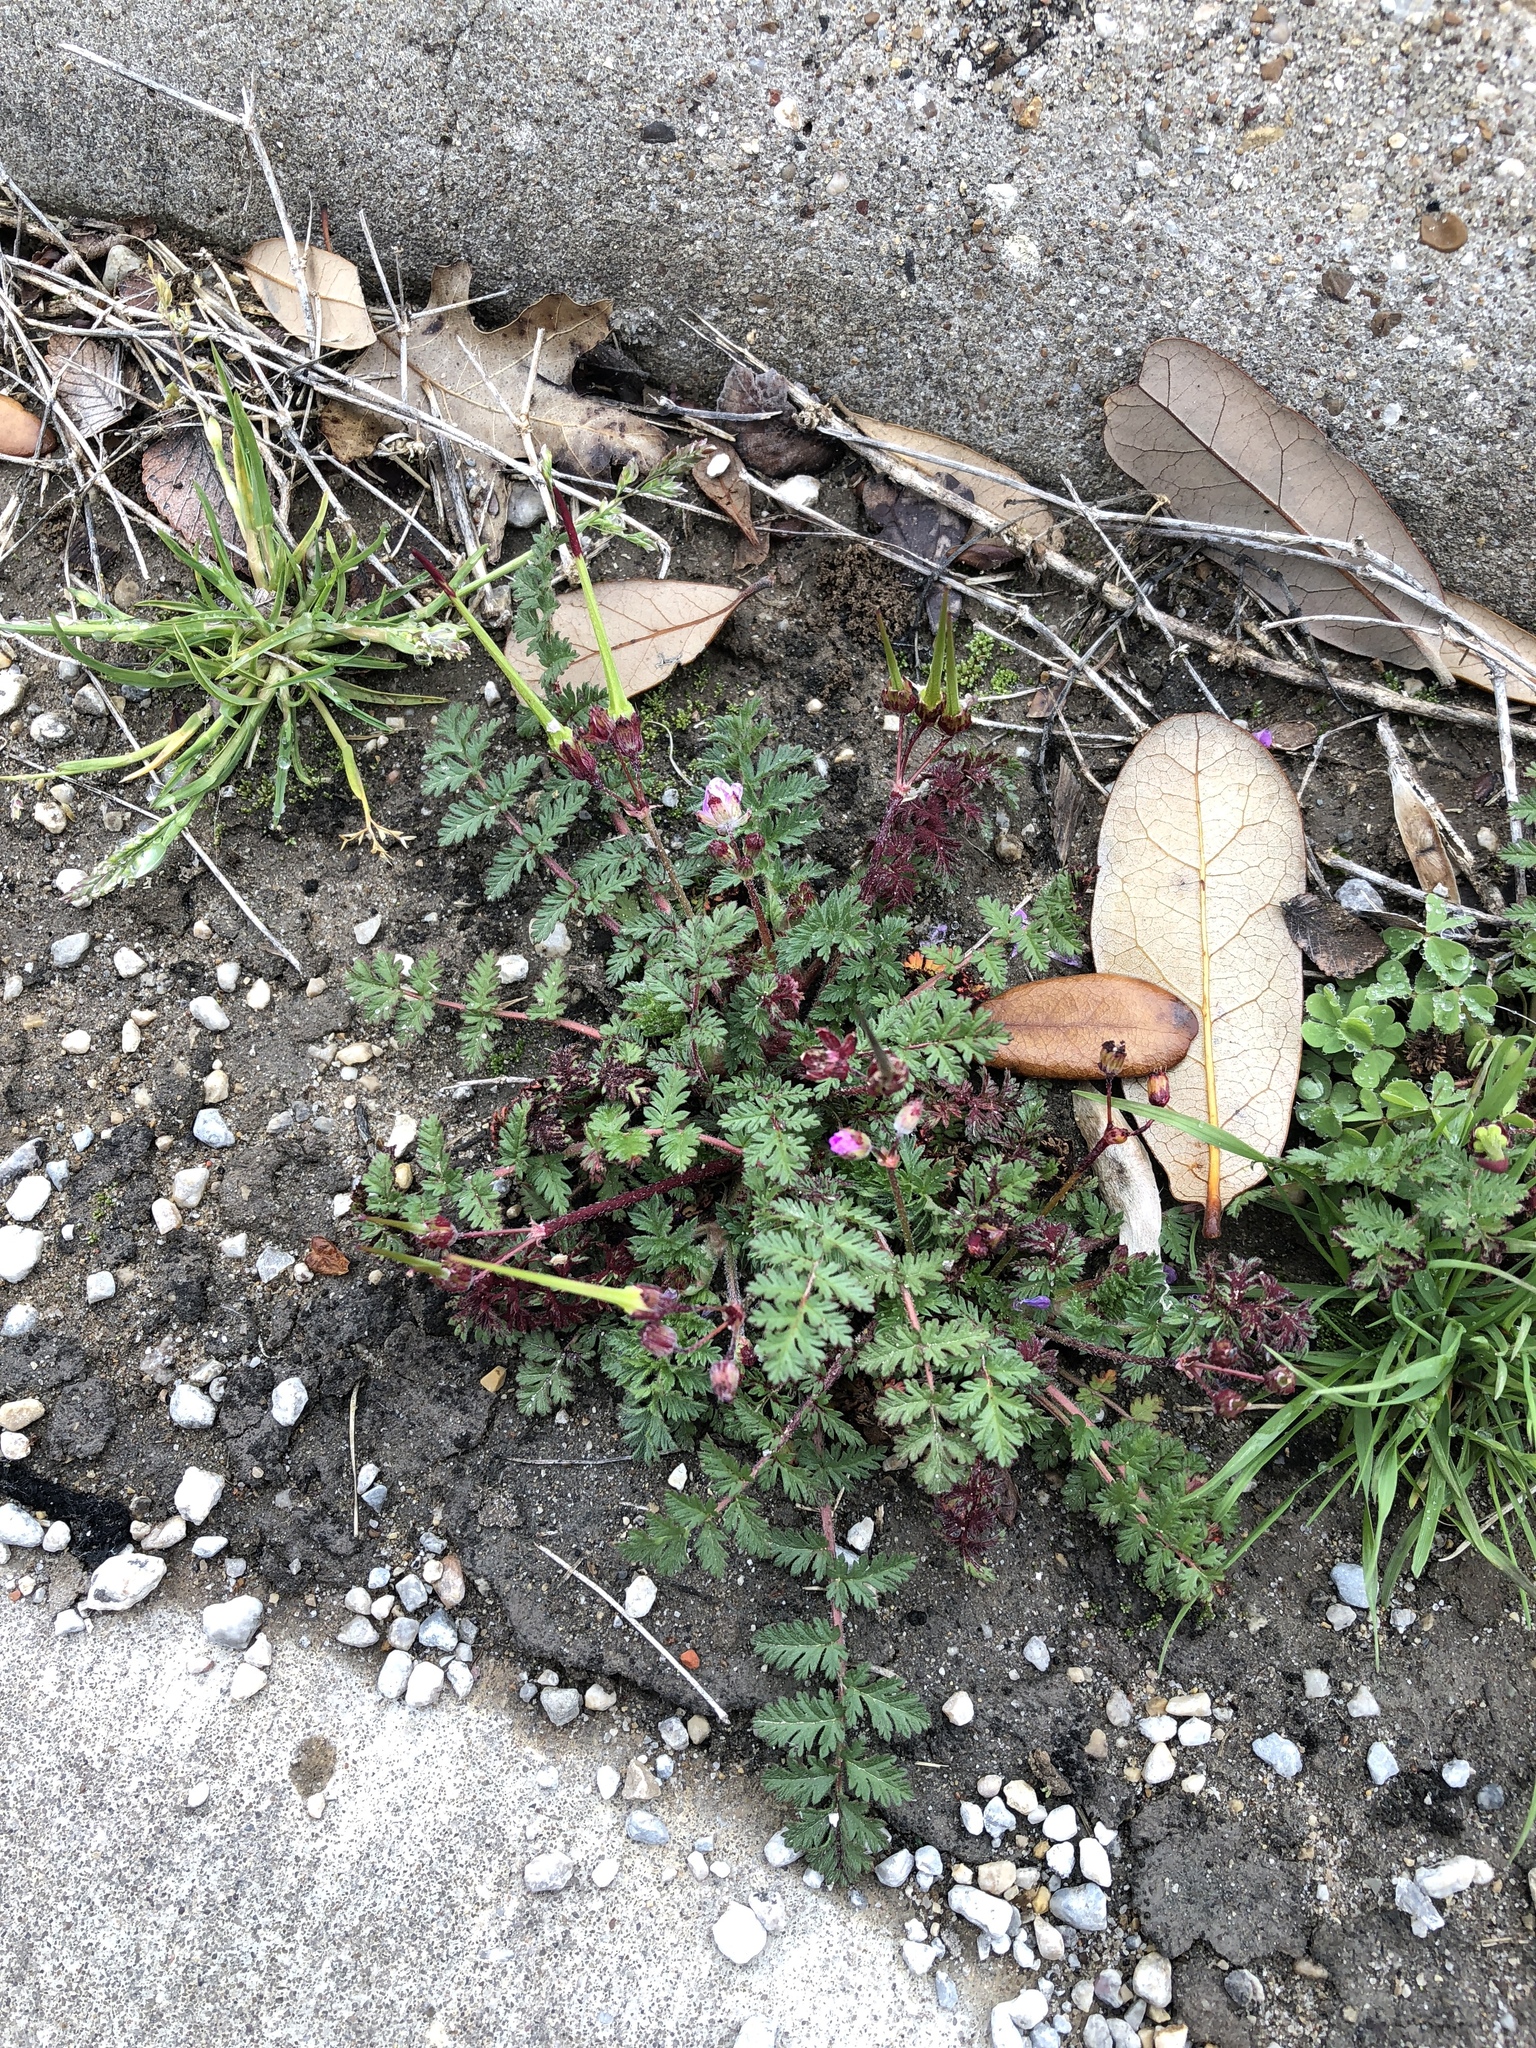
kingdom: Plantae
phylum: Tracheophyta
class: Magnoliopsida
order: Geraniales
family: Geraniaceae
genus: Erodium
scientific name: Erodium cicutarium
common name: Common stork's-bill
